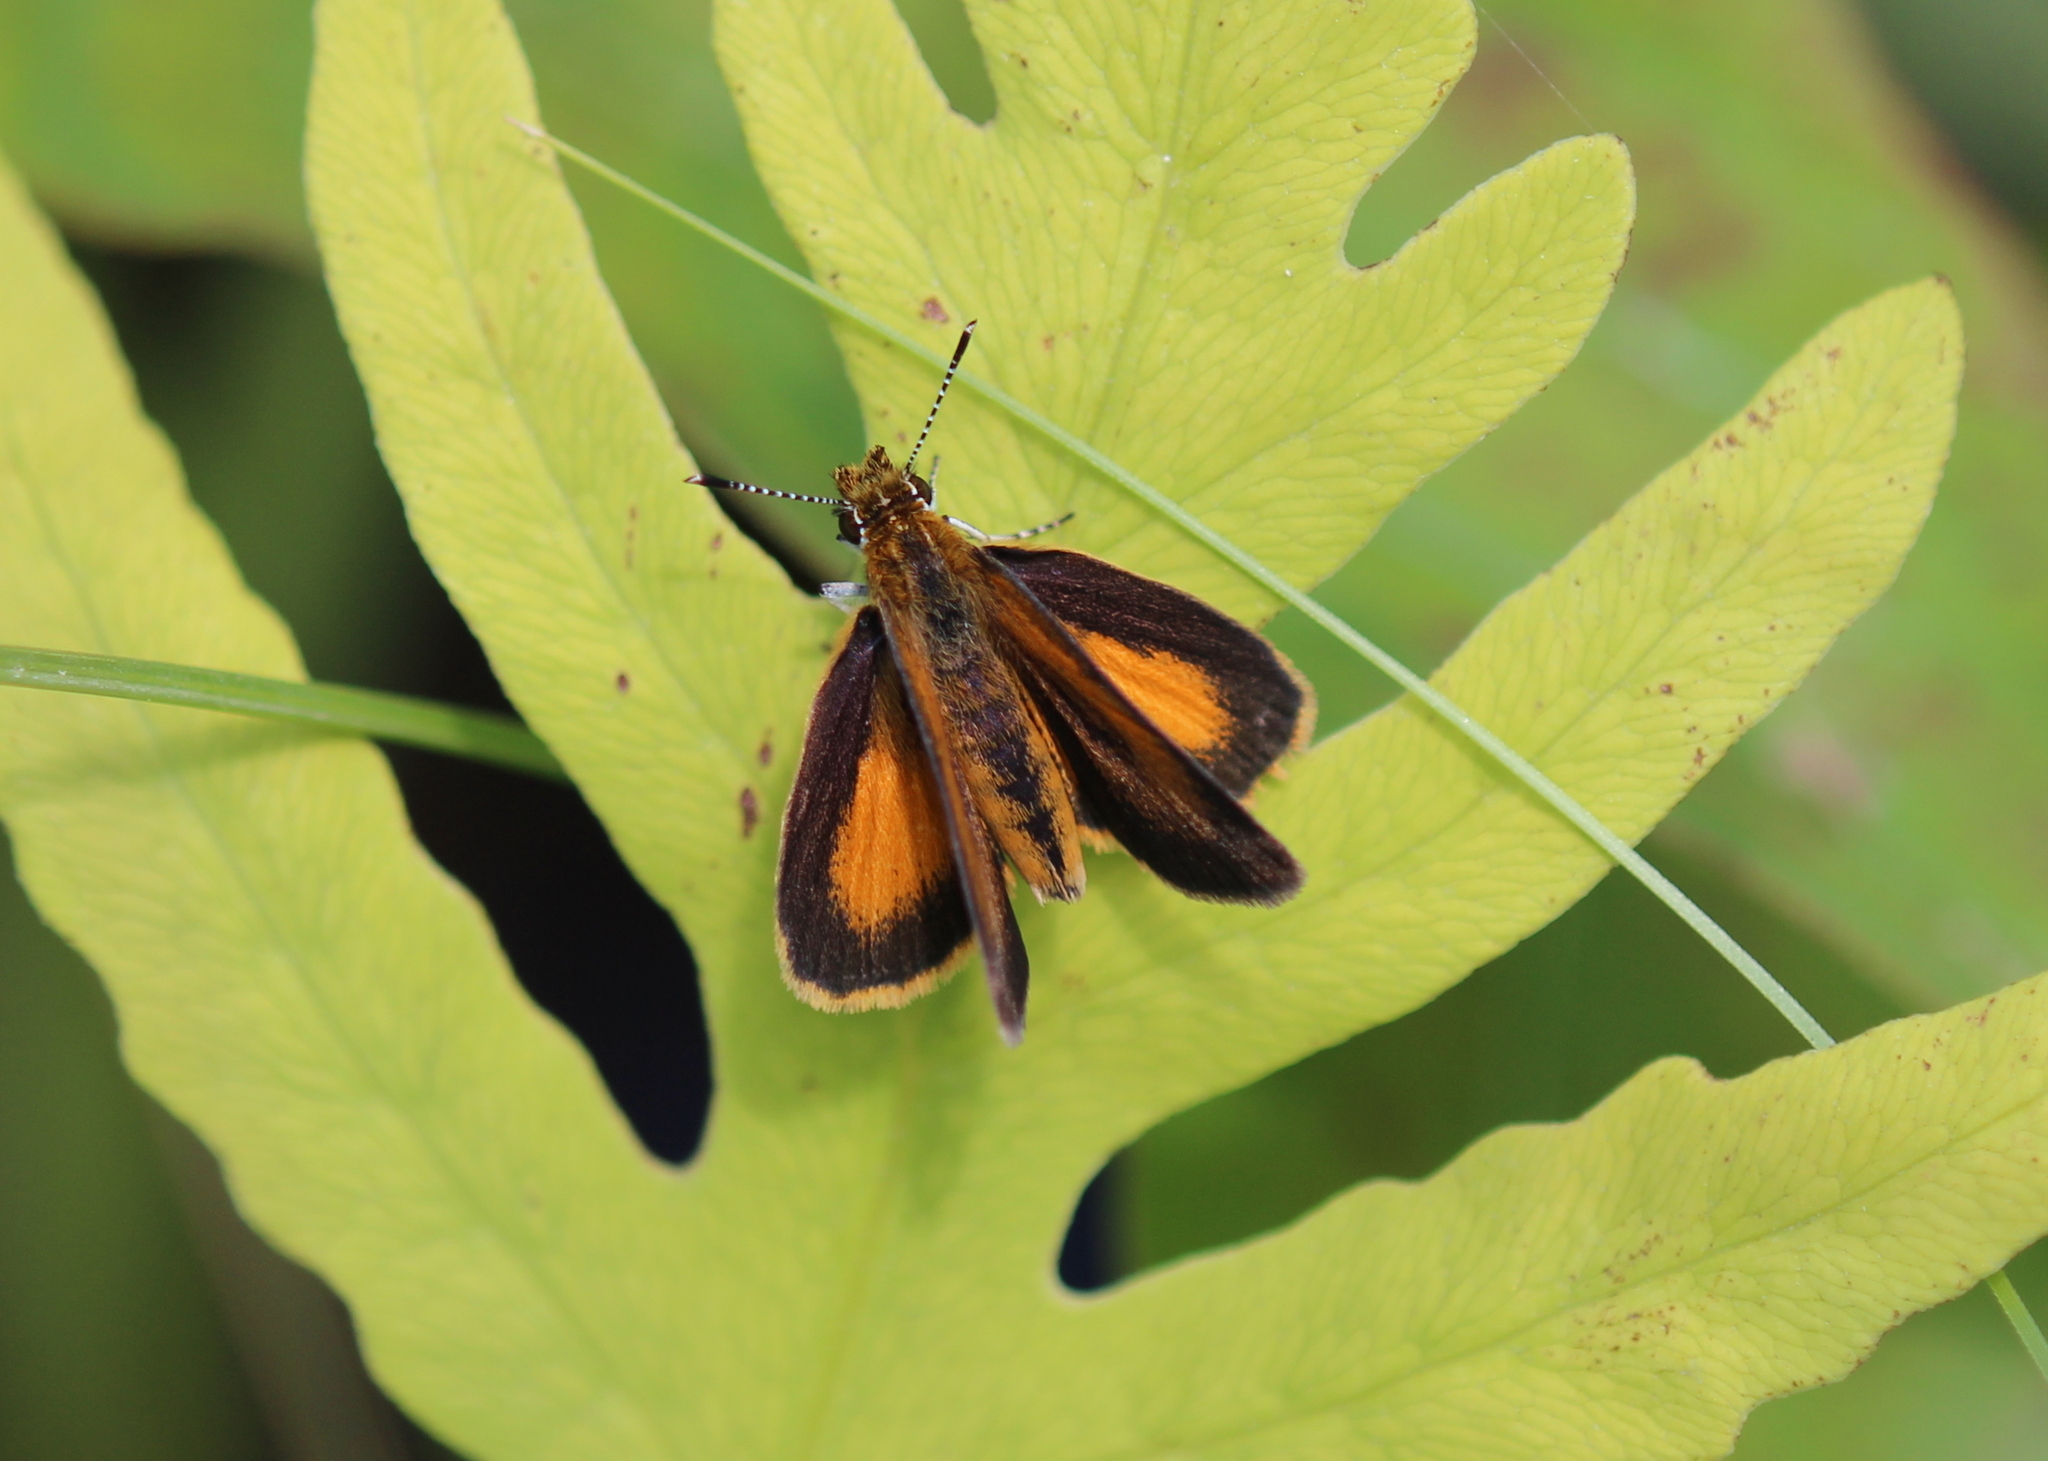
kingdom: Animalia
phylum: Arthropoda
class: Insecta
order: Lepidoptera
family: Hesperiidae
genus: Ancyloxypha
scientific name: Ancyloxypha numitor
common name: Least skipper
